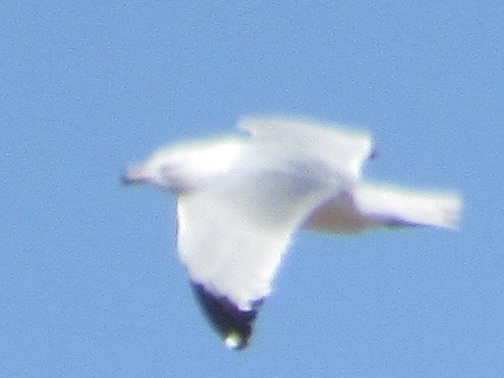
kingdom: Animalia
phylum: Chordata
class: Aves
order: Charadriiformes
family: Laridae
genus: Larus
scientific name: Larus delawarensis
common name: Ring-billed gull
